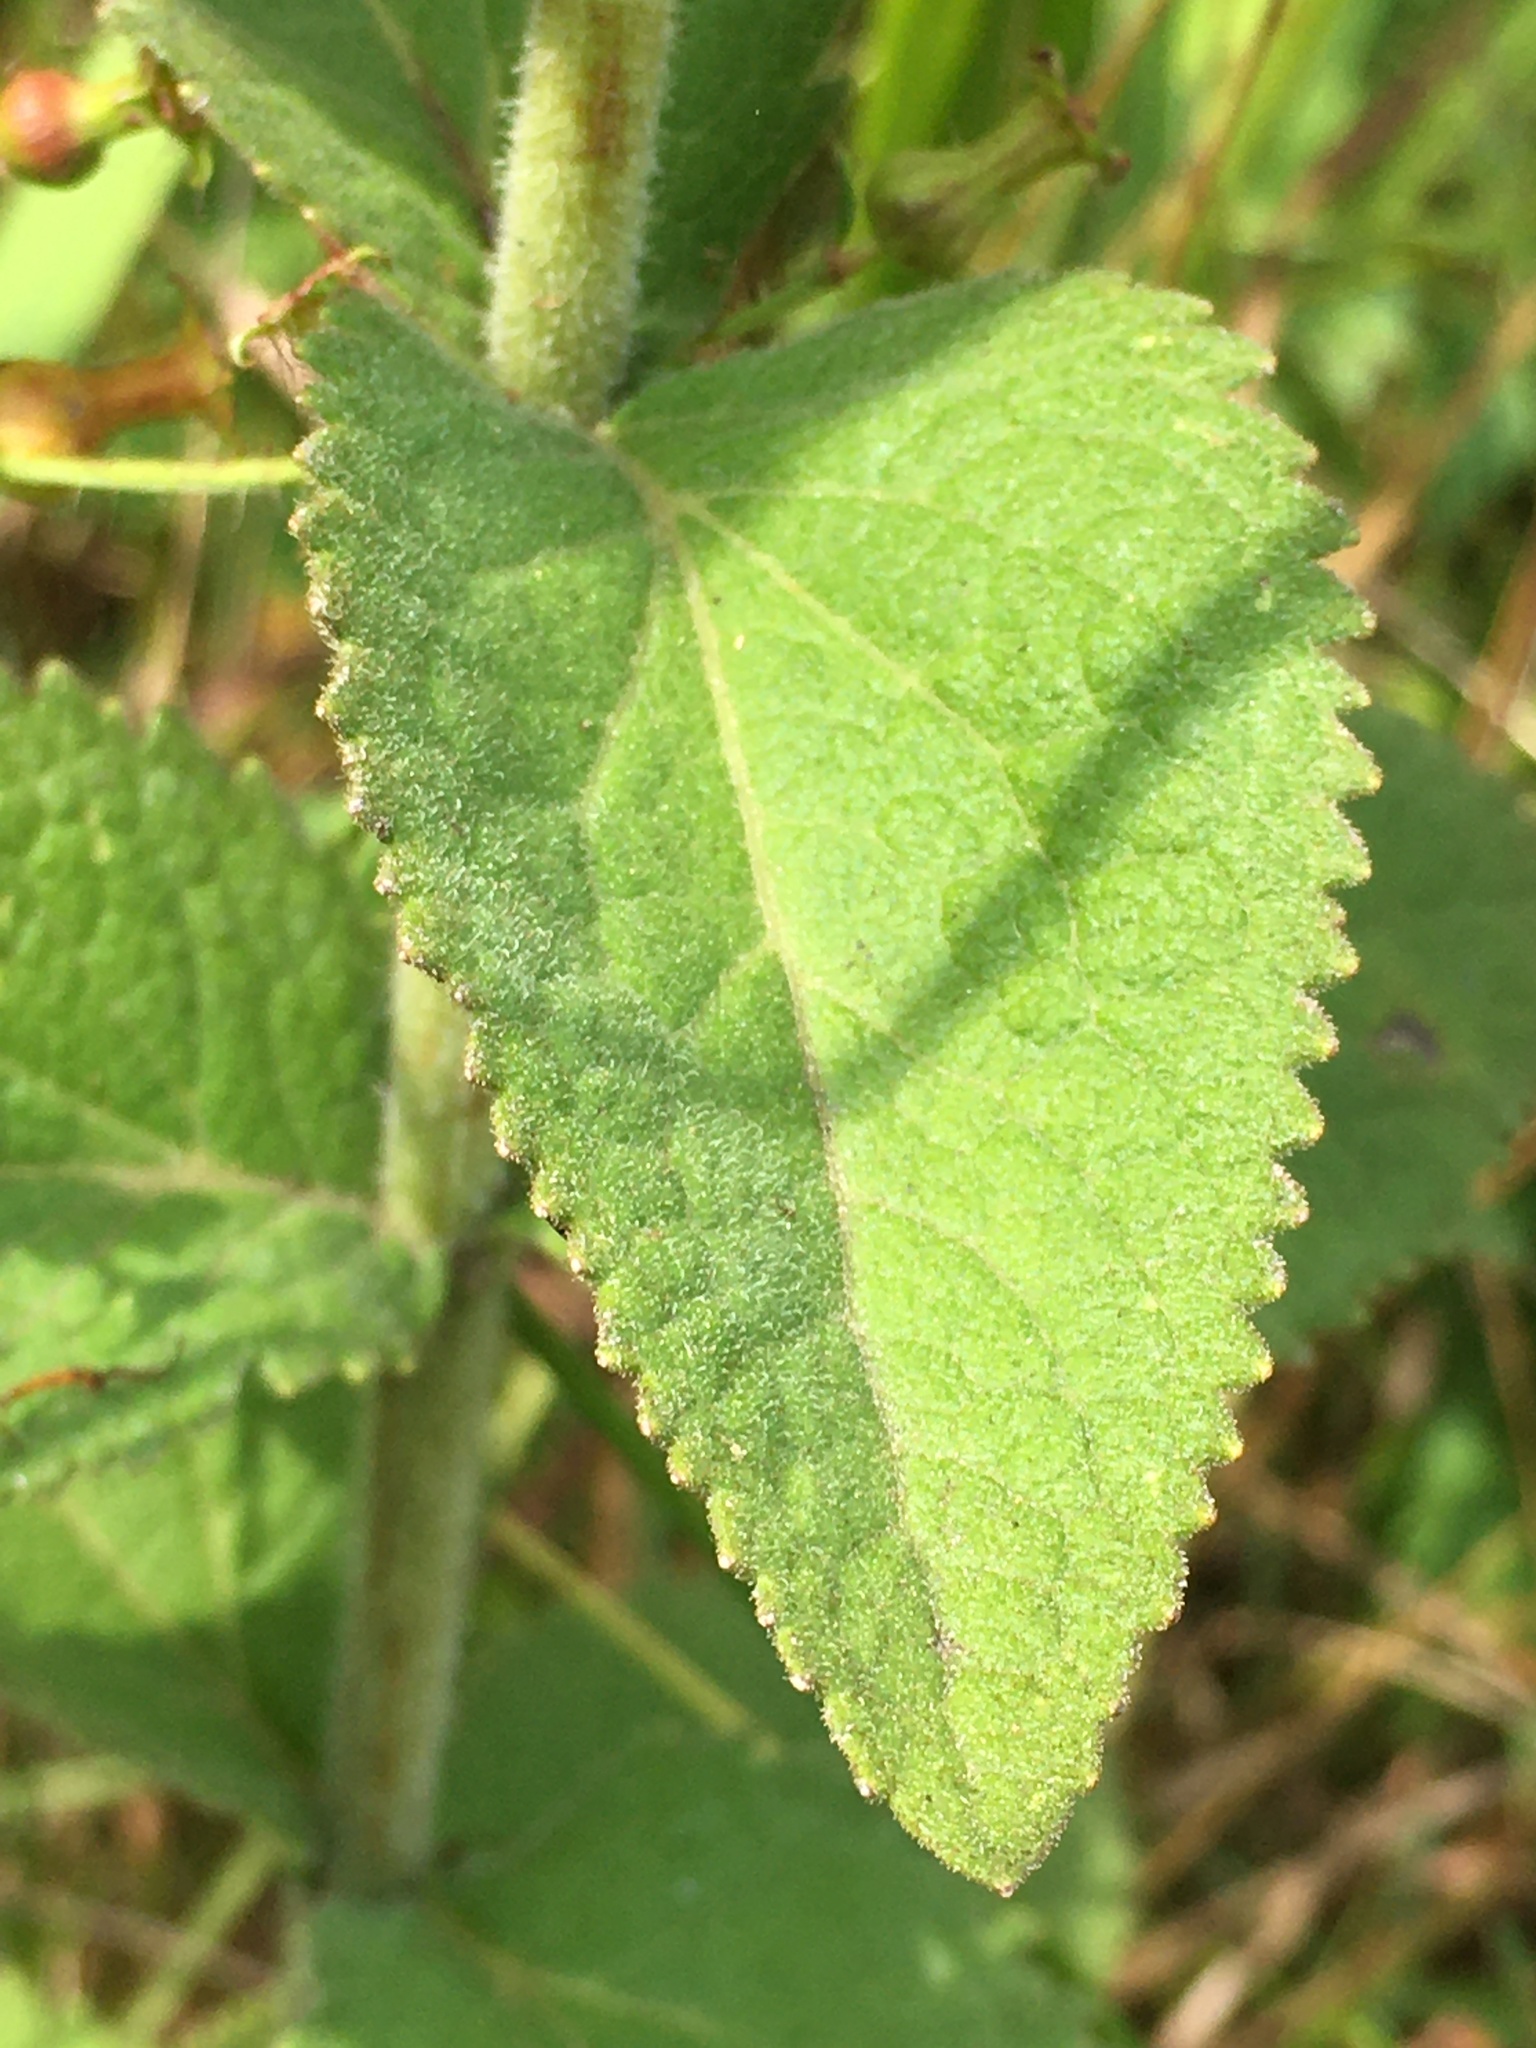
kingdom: Plantae
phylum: Tracheophyta
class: Magnoliopsida
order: Asterales
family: Asteraceae
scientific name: Asteraceae
